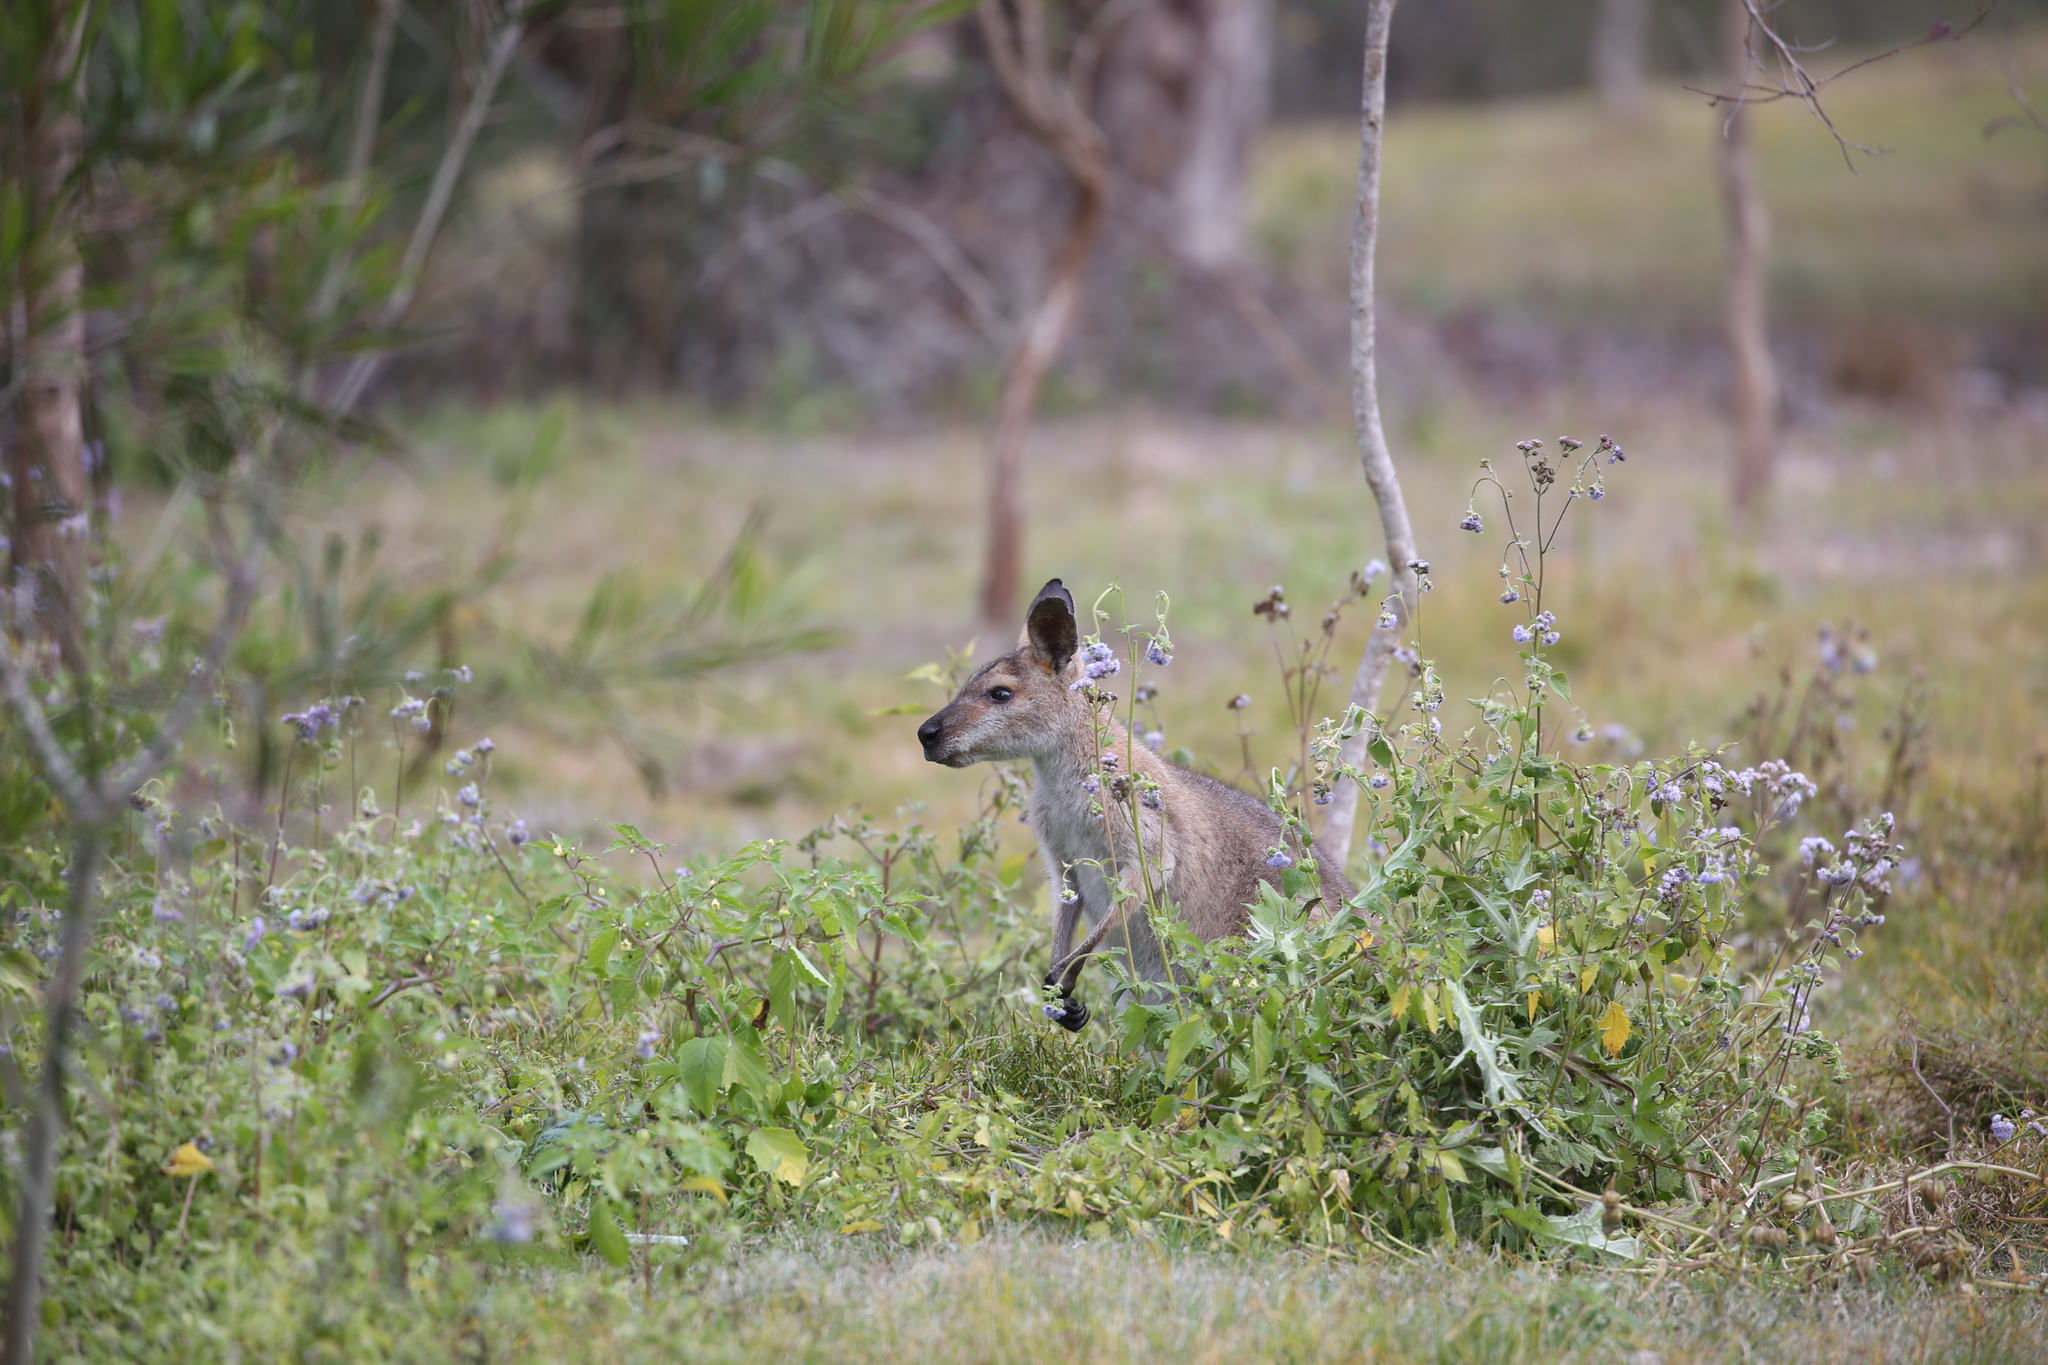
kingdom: Animalia
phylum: Chordata
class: Mammalia
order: Diprotodontia
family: Macropodidae
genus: Notamacropus
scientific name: Notamacropus rufogriseus
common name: Red-necked wallaby
